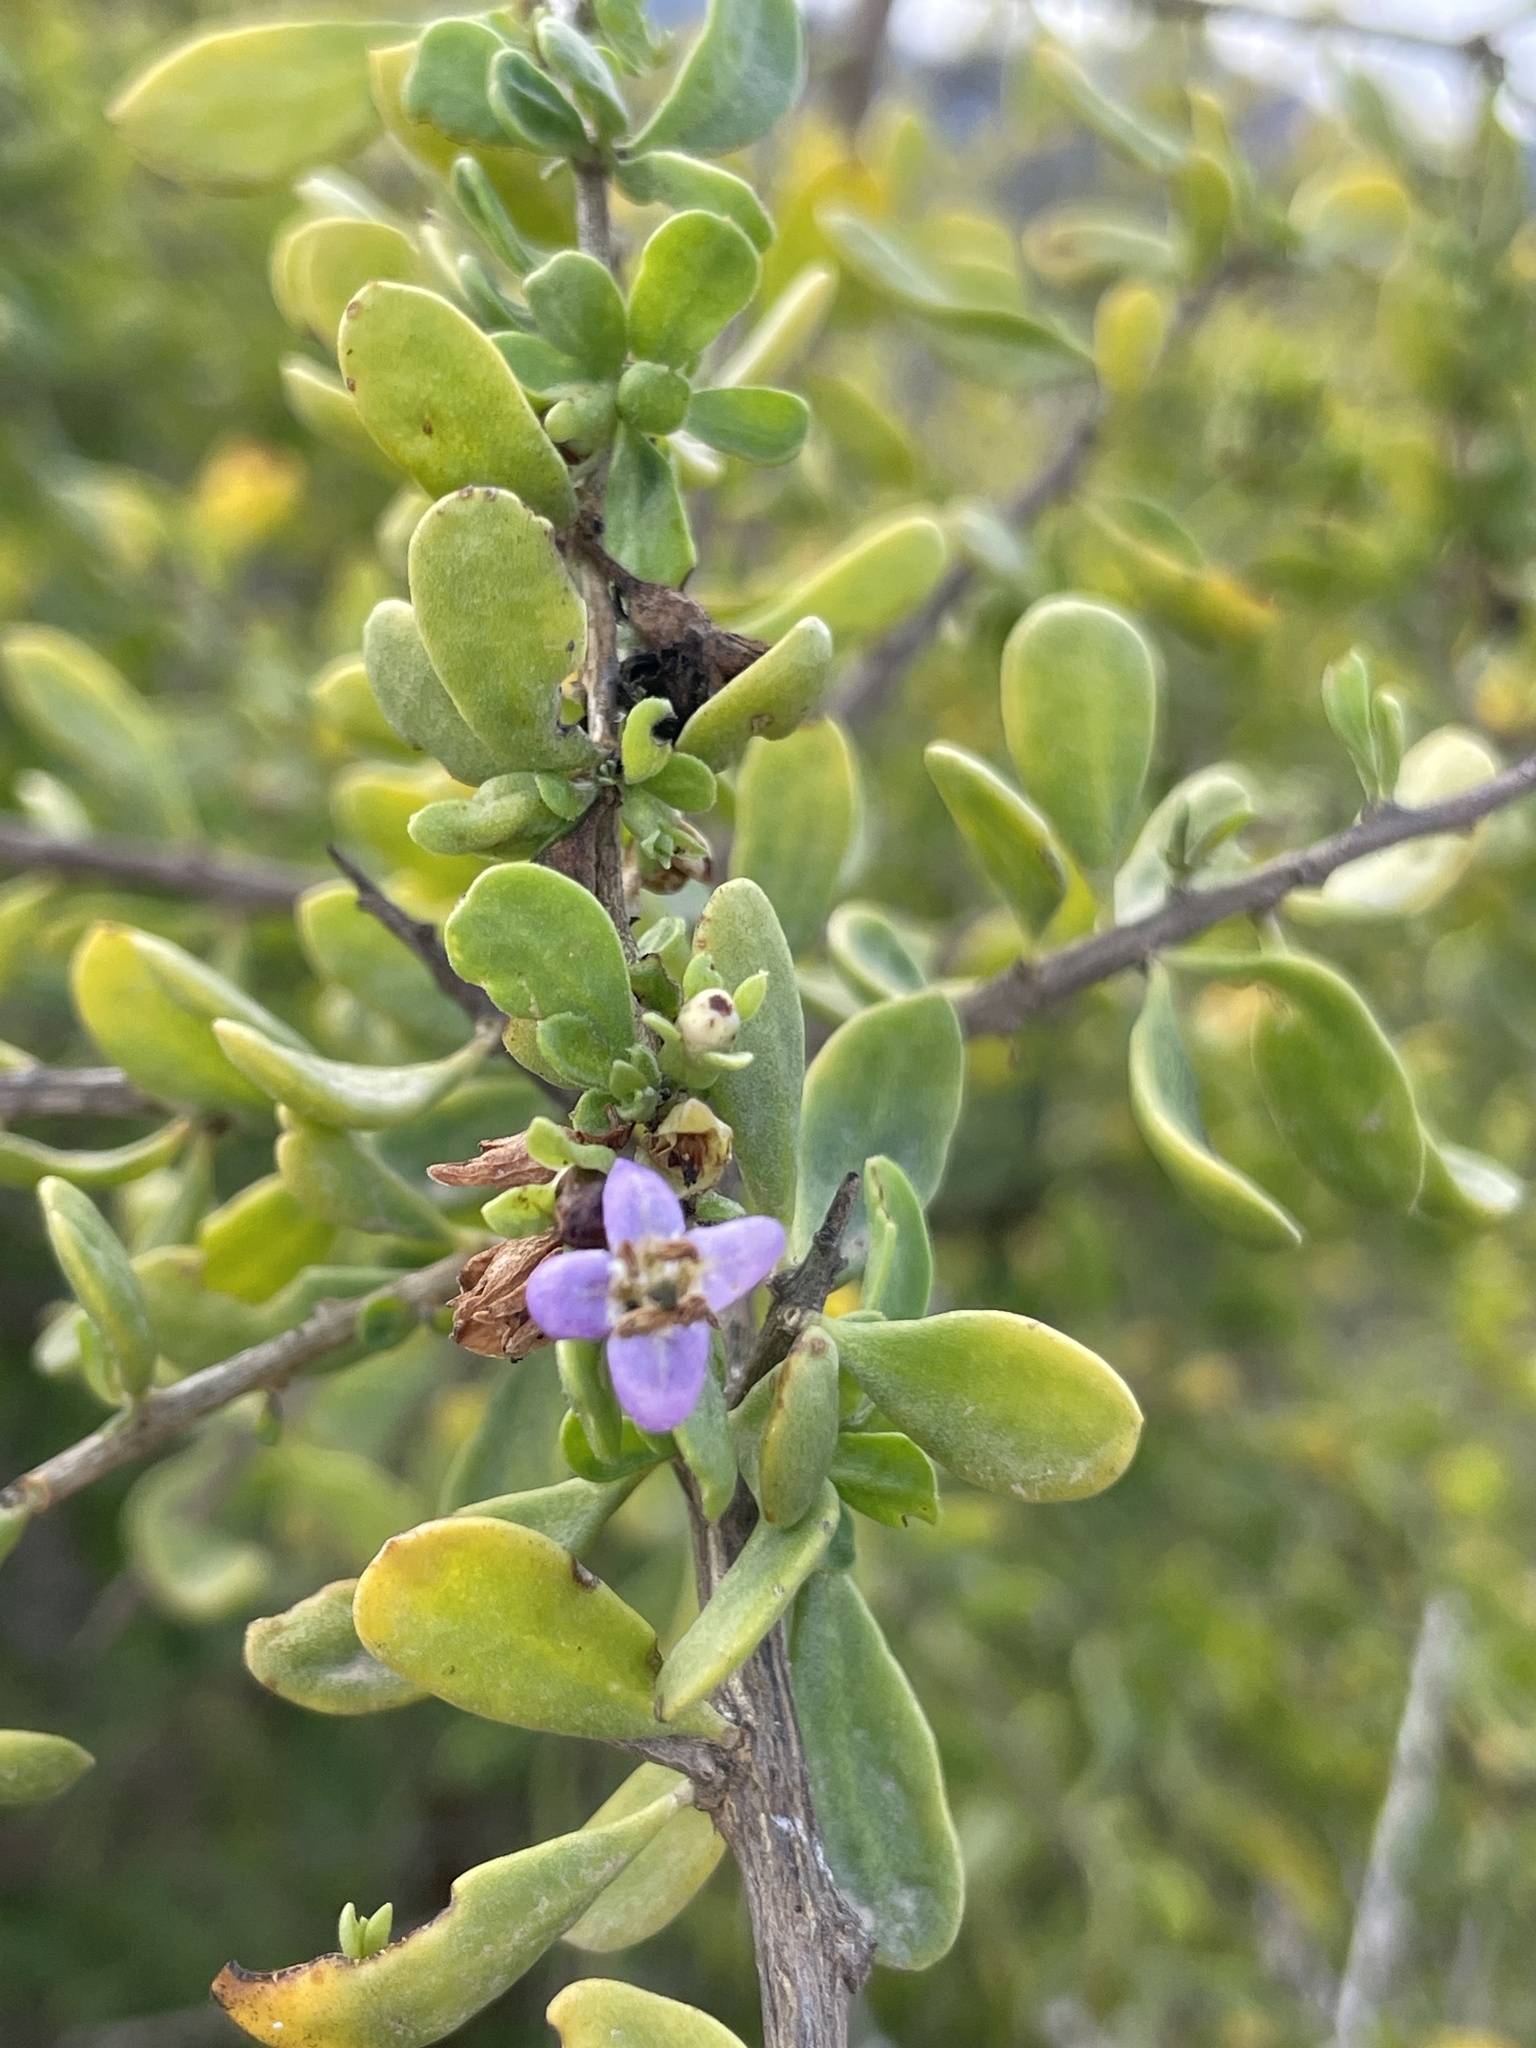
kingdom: Plantae
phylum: Tracheophyta
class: Magnoliopsida
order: Solanales
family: Solanaceae
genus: Lycium
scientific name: Lycium brevipes
